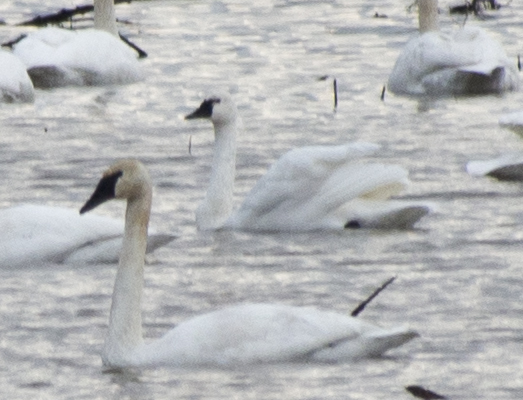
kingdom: Animalia
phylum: Chordata
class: Aves
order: Anseriformes
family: Anatidae
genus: Cygnus
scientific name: Cygnus columbianus
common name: Tundra swan
